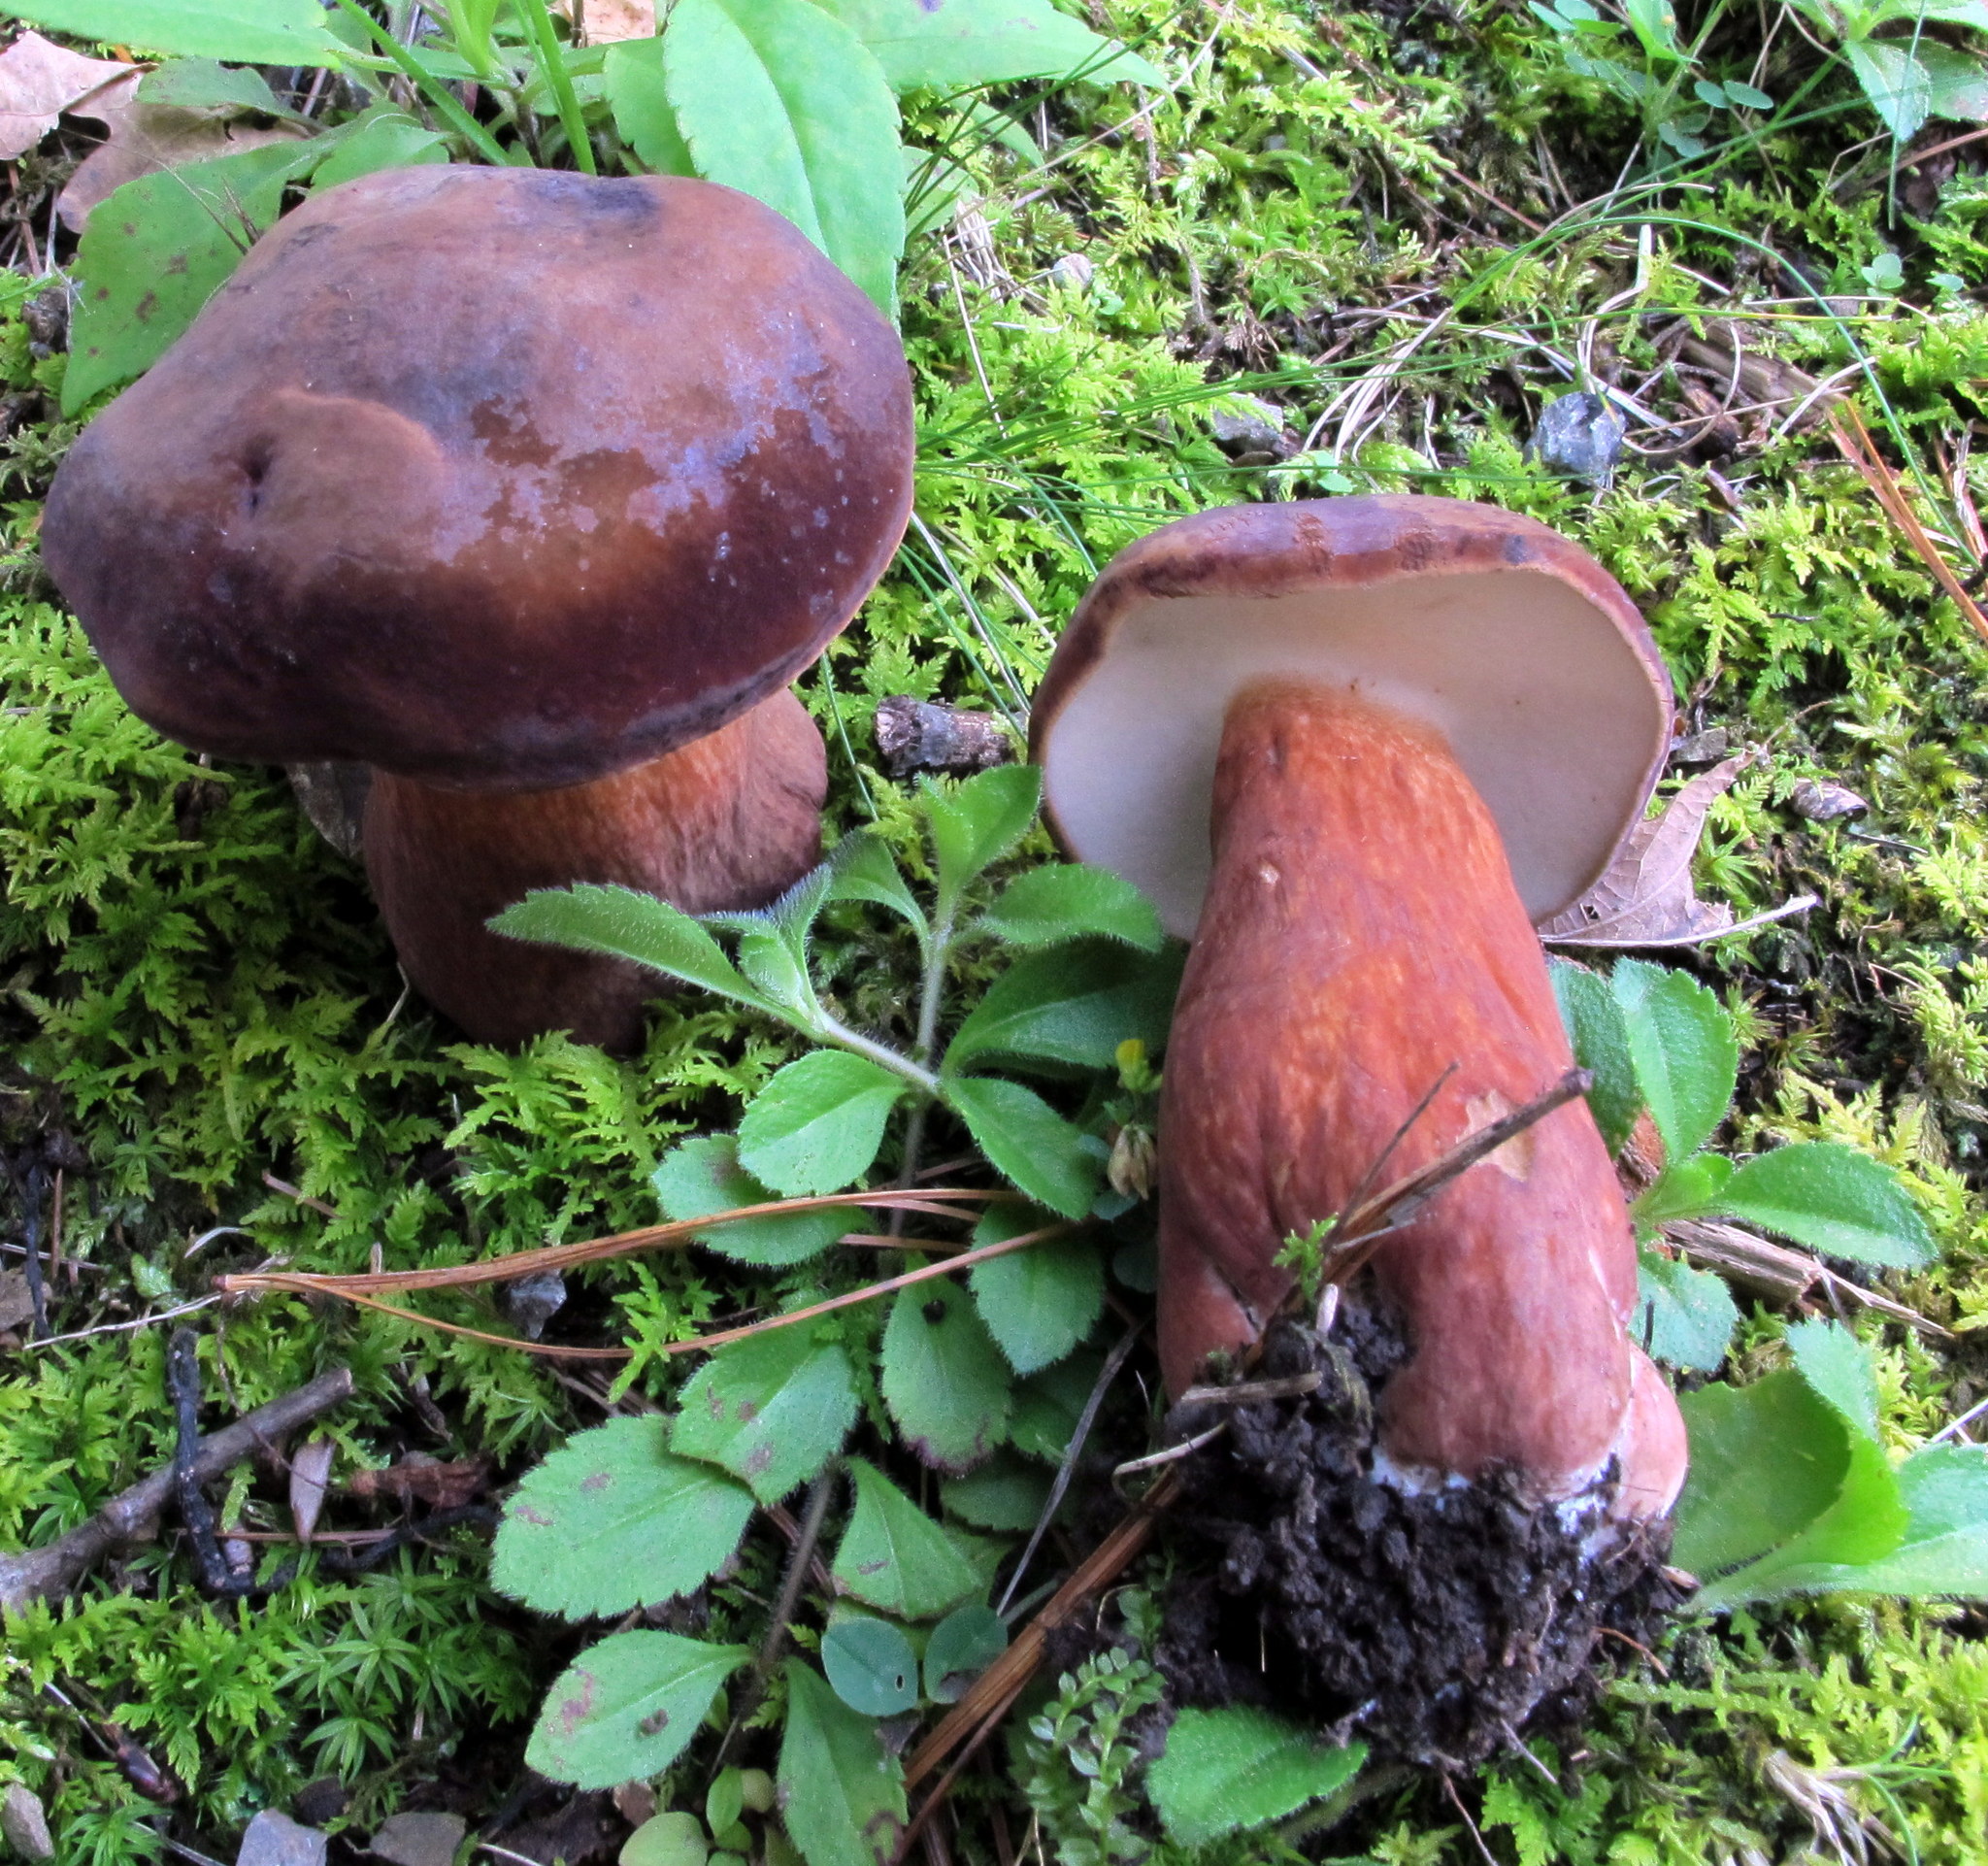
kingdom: Fungi
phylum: Basidiomycota
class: Agaricomycetes
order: Boletales
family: Boletaceae
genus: Tylopilus
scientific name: Tylopilus badiceps
